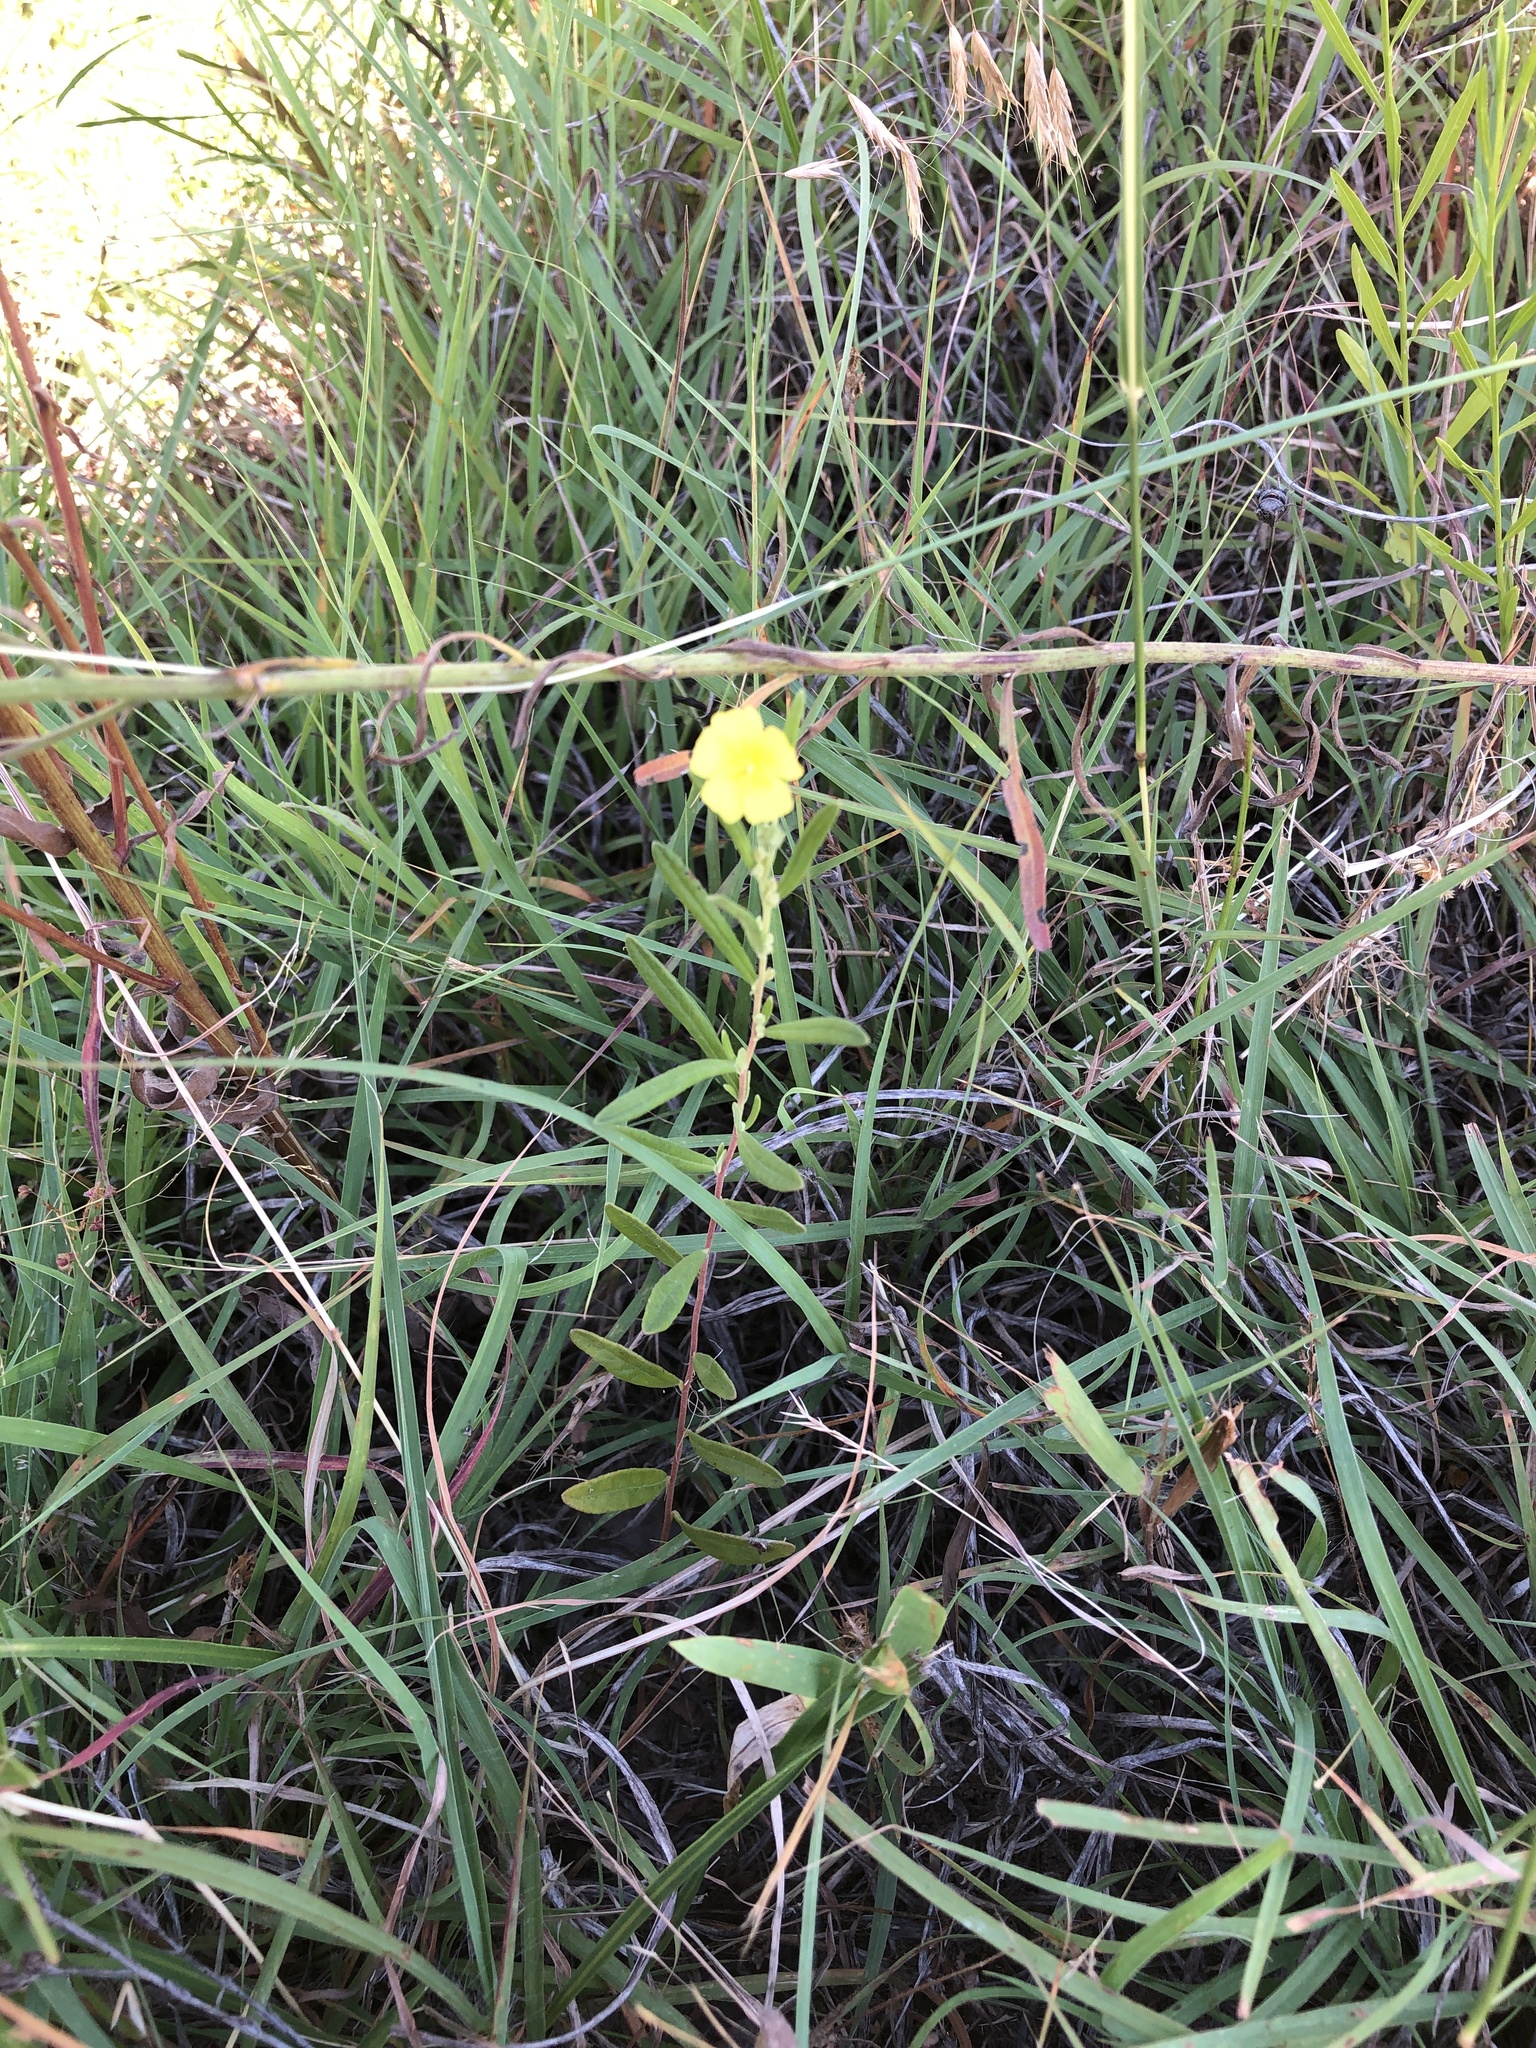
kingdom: Plantae
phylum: Tracheophyta
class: Magnoliopsida
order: Malvales
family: Cistaceae
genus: Crocanthemum
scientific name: Crocanthemum georgianum
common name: Georgia frostweed
